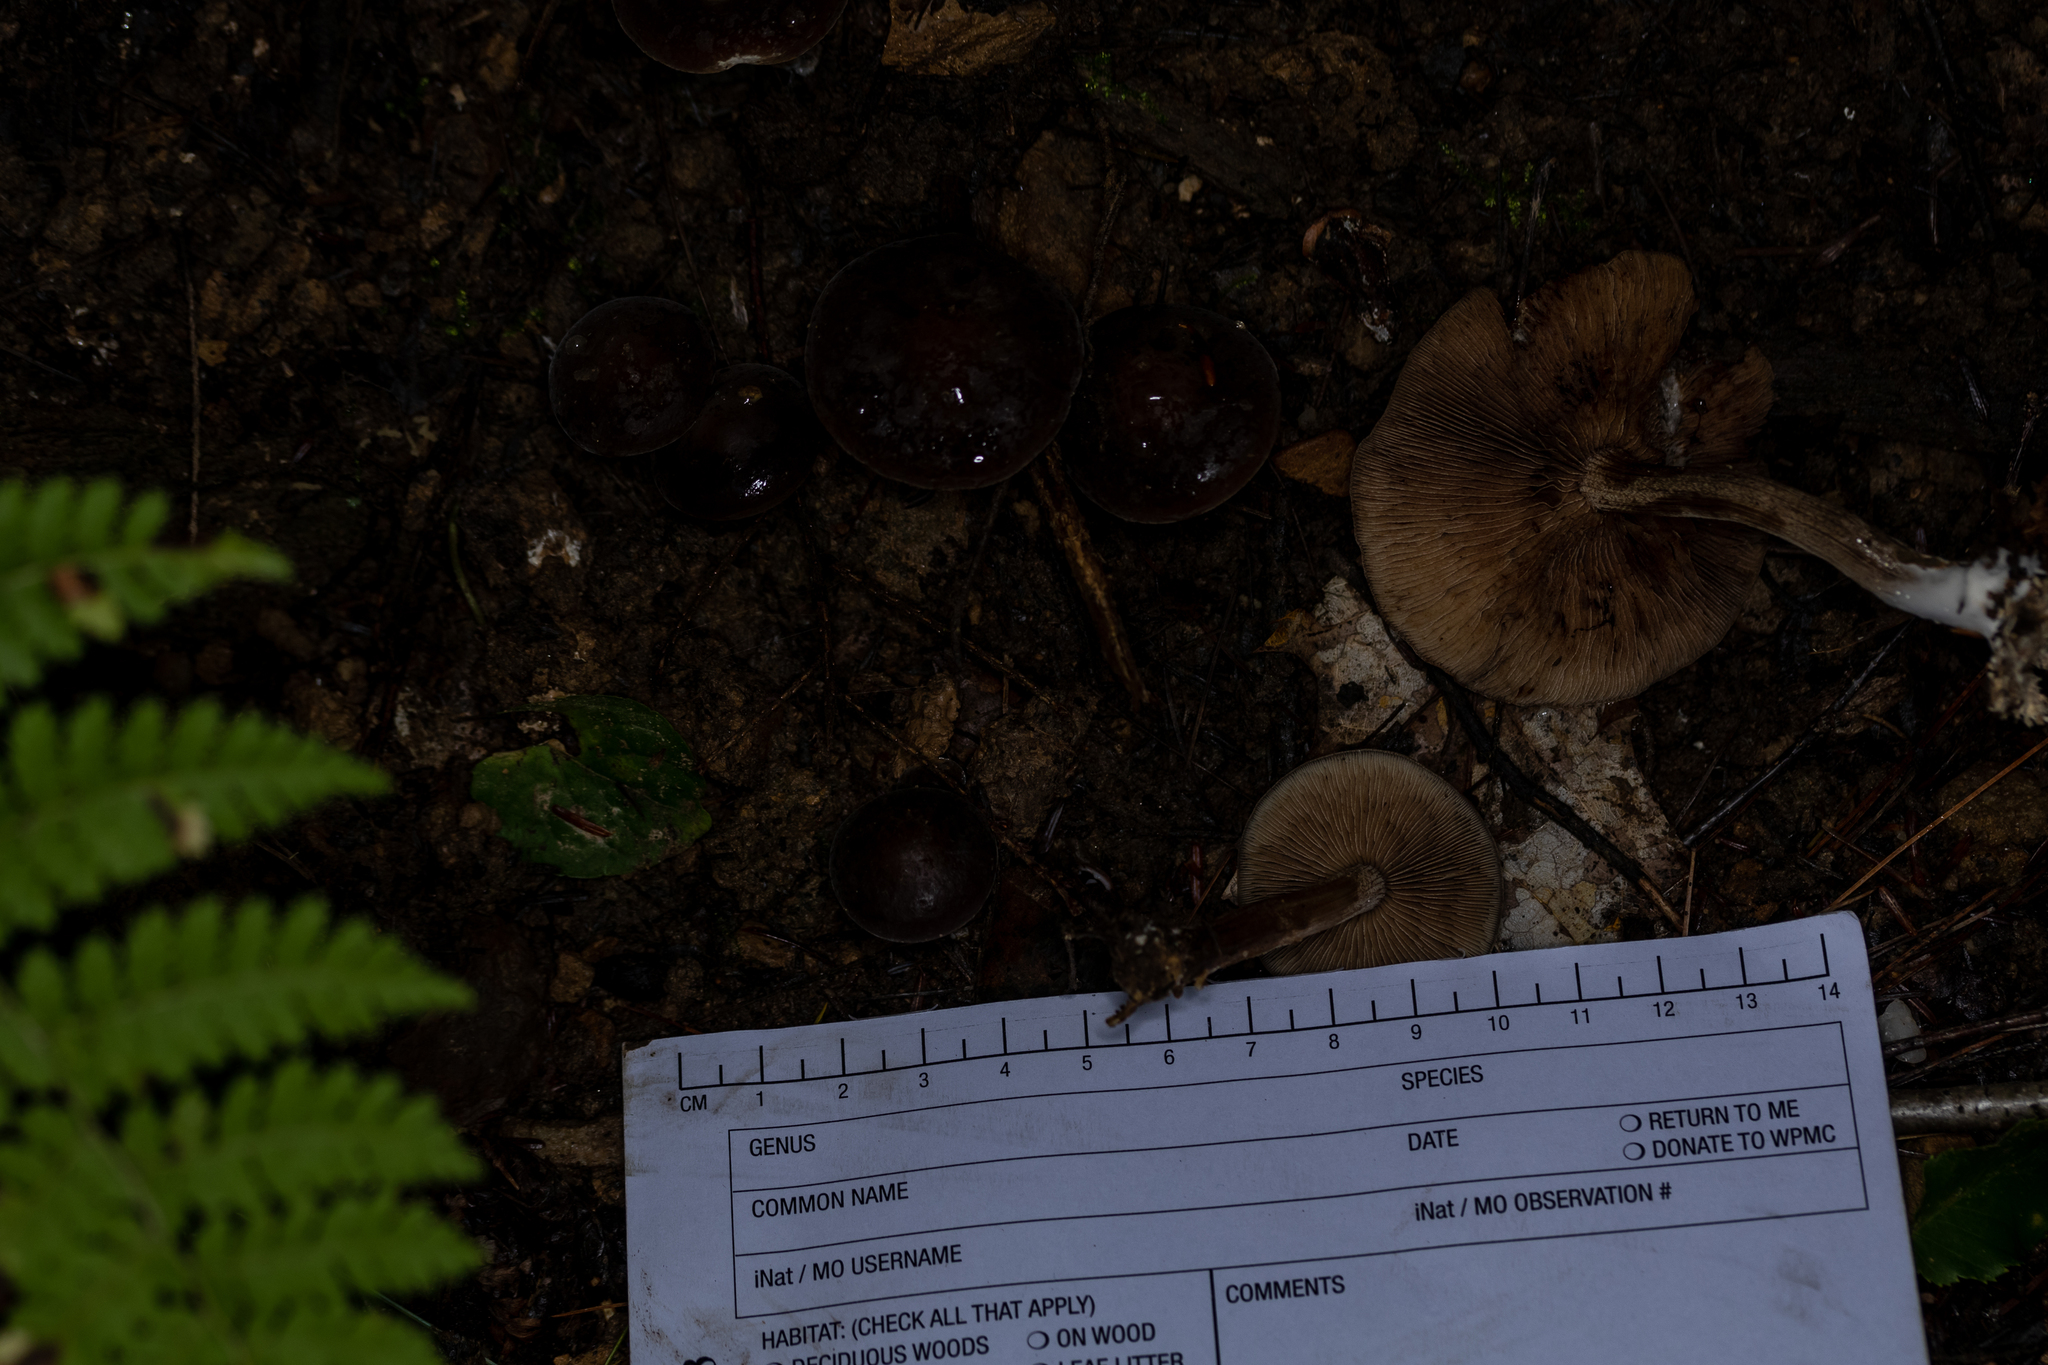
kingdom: Fungi
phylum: Basidiomycota
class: Agaricomycetes
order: Agaricales
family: Strophariaceae
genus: Agrocybe
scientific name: Agrocybe firma
